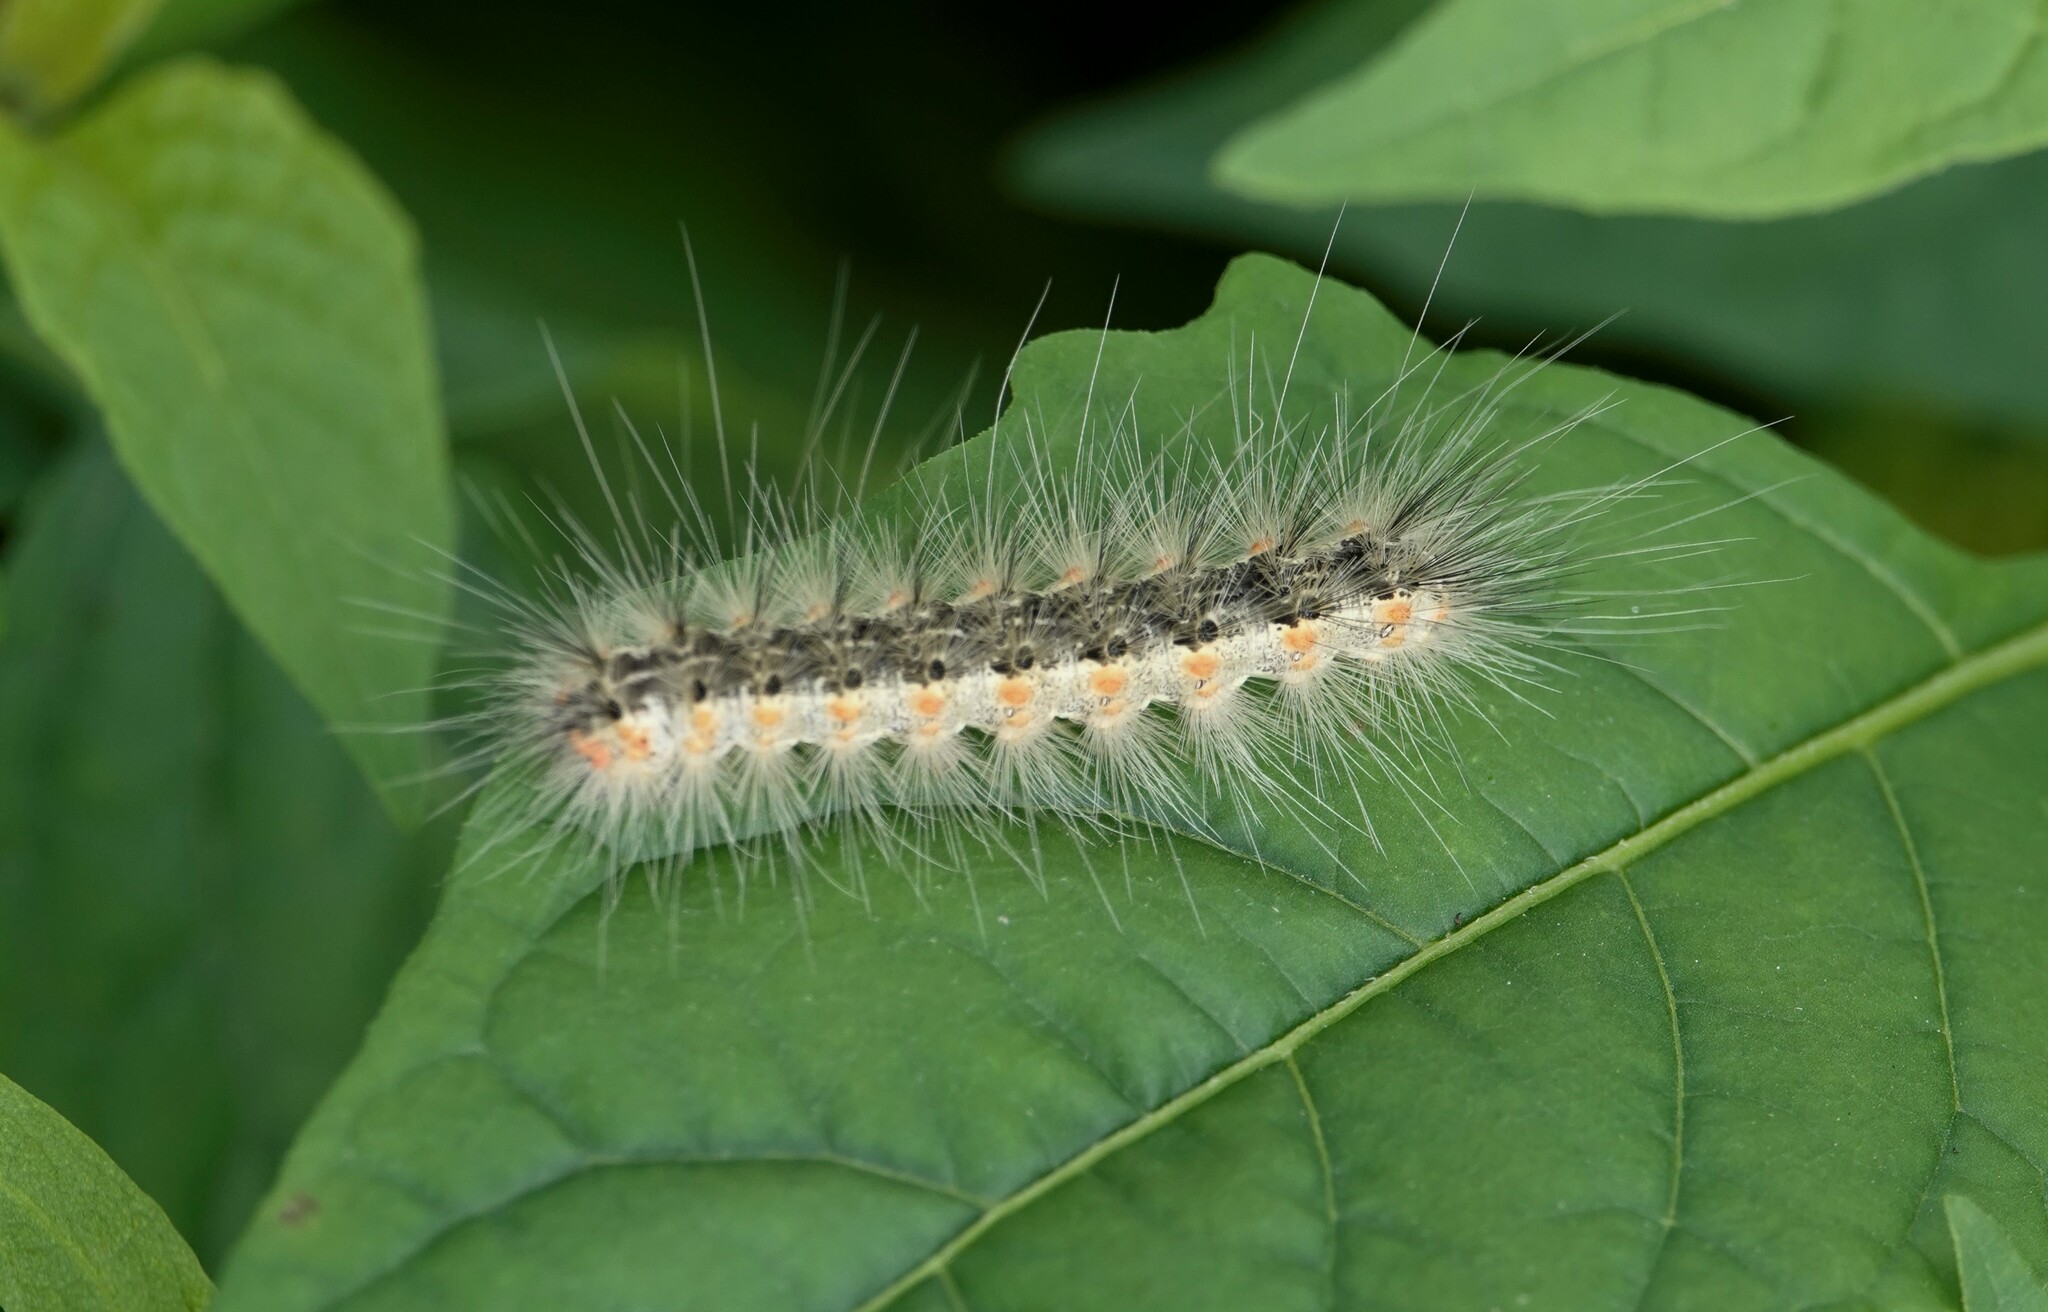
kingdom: Animalia
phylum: Arthropoda
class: Insecta
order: Lepidoptera
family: Erebidae
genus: Hyphantria
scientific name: Hyphantria cunea
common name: American white moth
